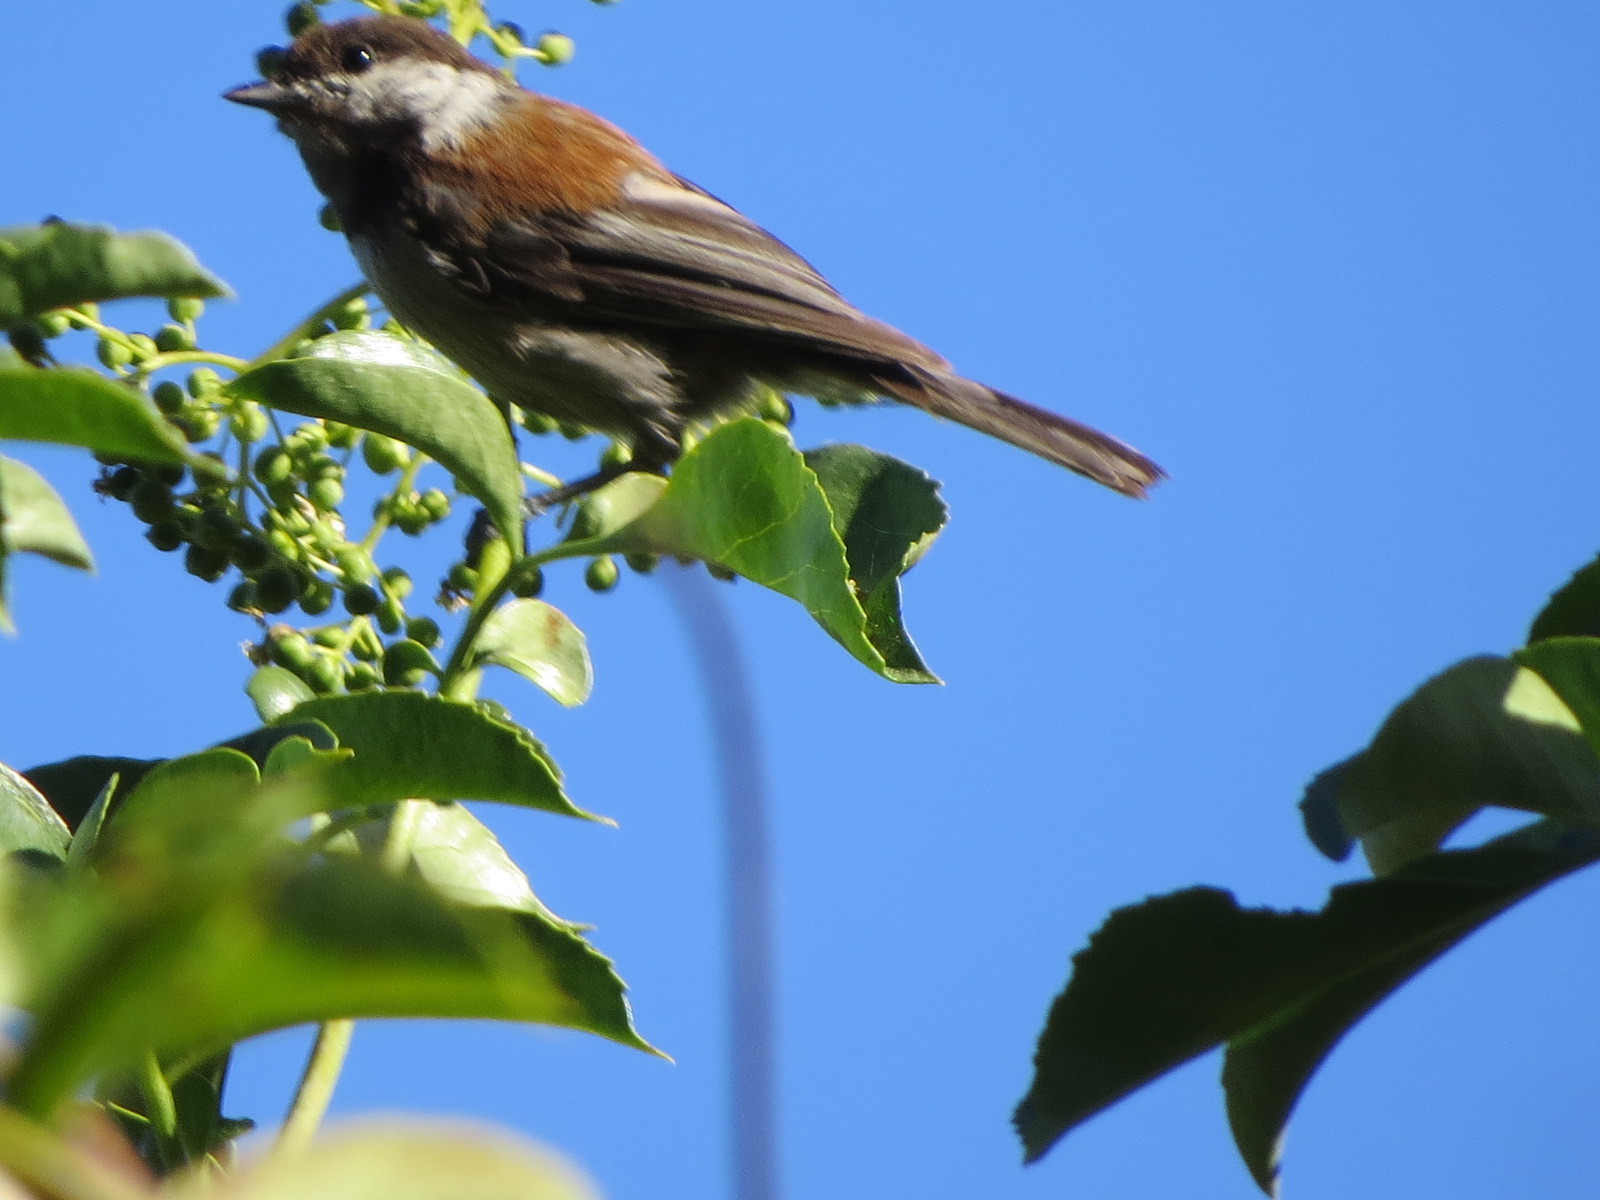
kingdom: Animalia
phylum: Chordata
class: Aves
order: Passeriformes
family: Paridae
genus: Poecile
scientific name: Poecile rufescens
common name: Chestnut-backed chickadee
